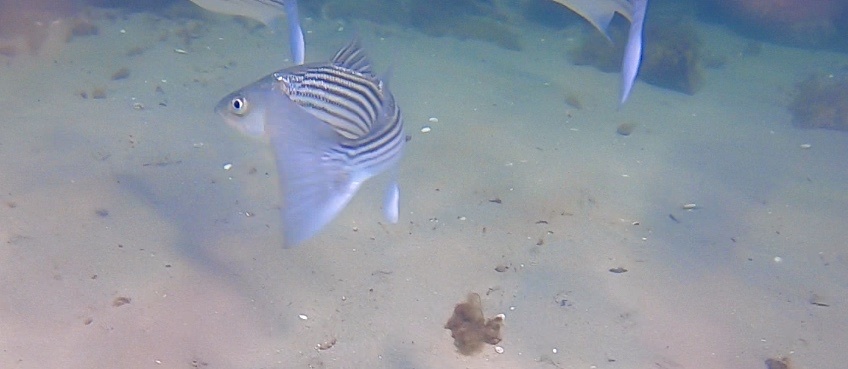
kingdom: Animalia
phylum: Chordata
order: Perciformes
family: Moronidae
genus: Morone
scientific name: Morone saxatilis
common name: Striped bass
